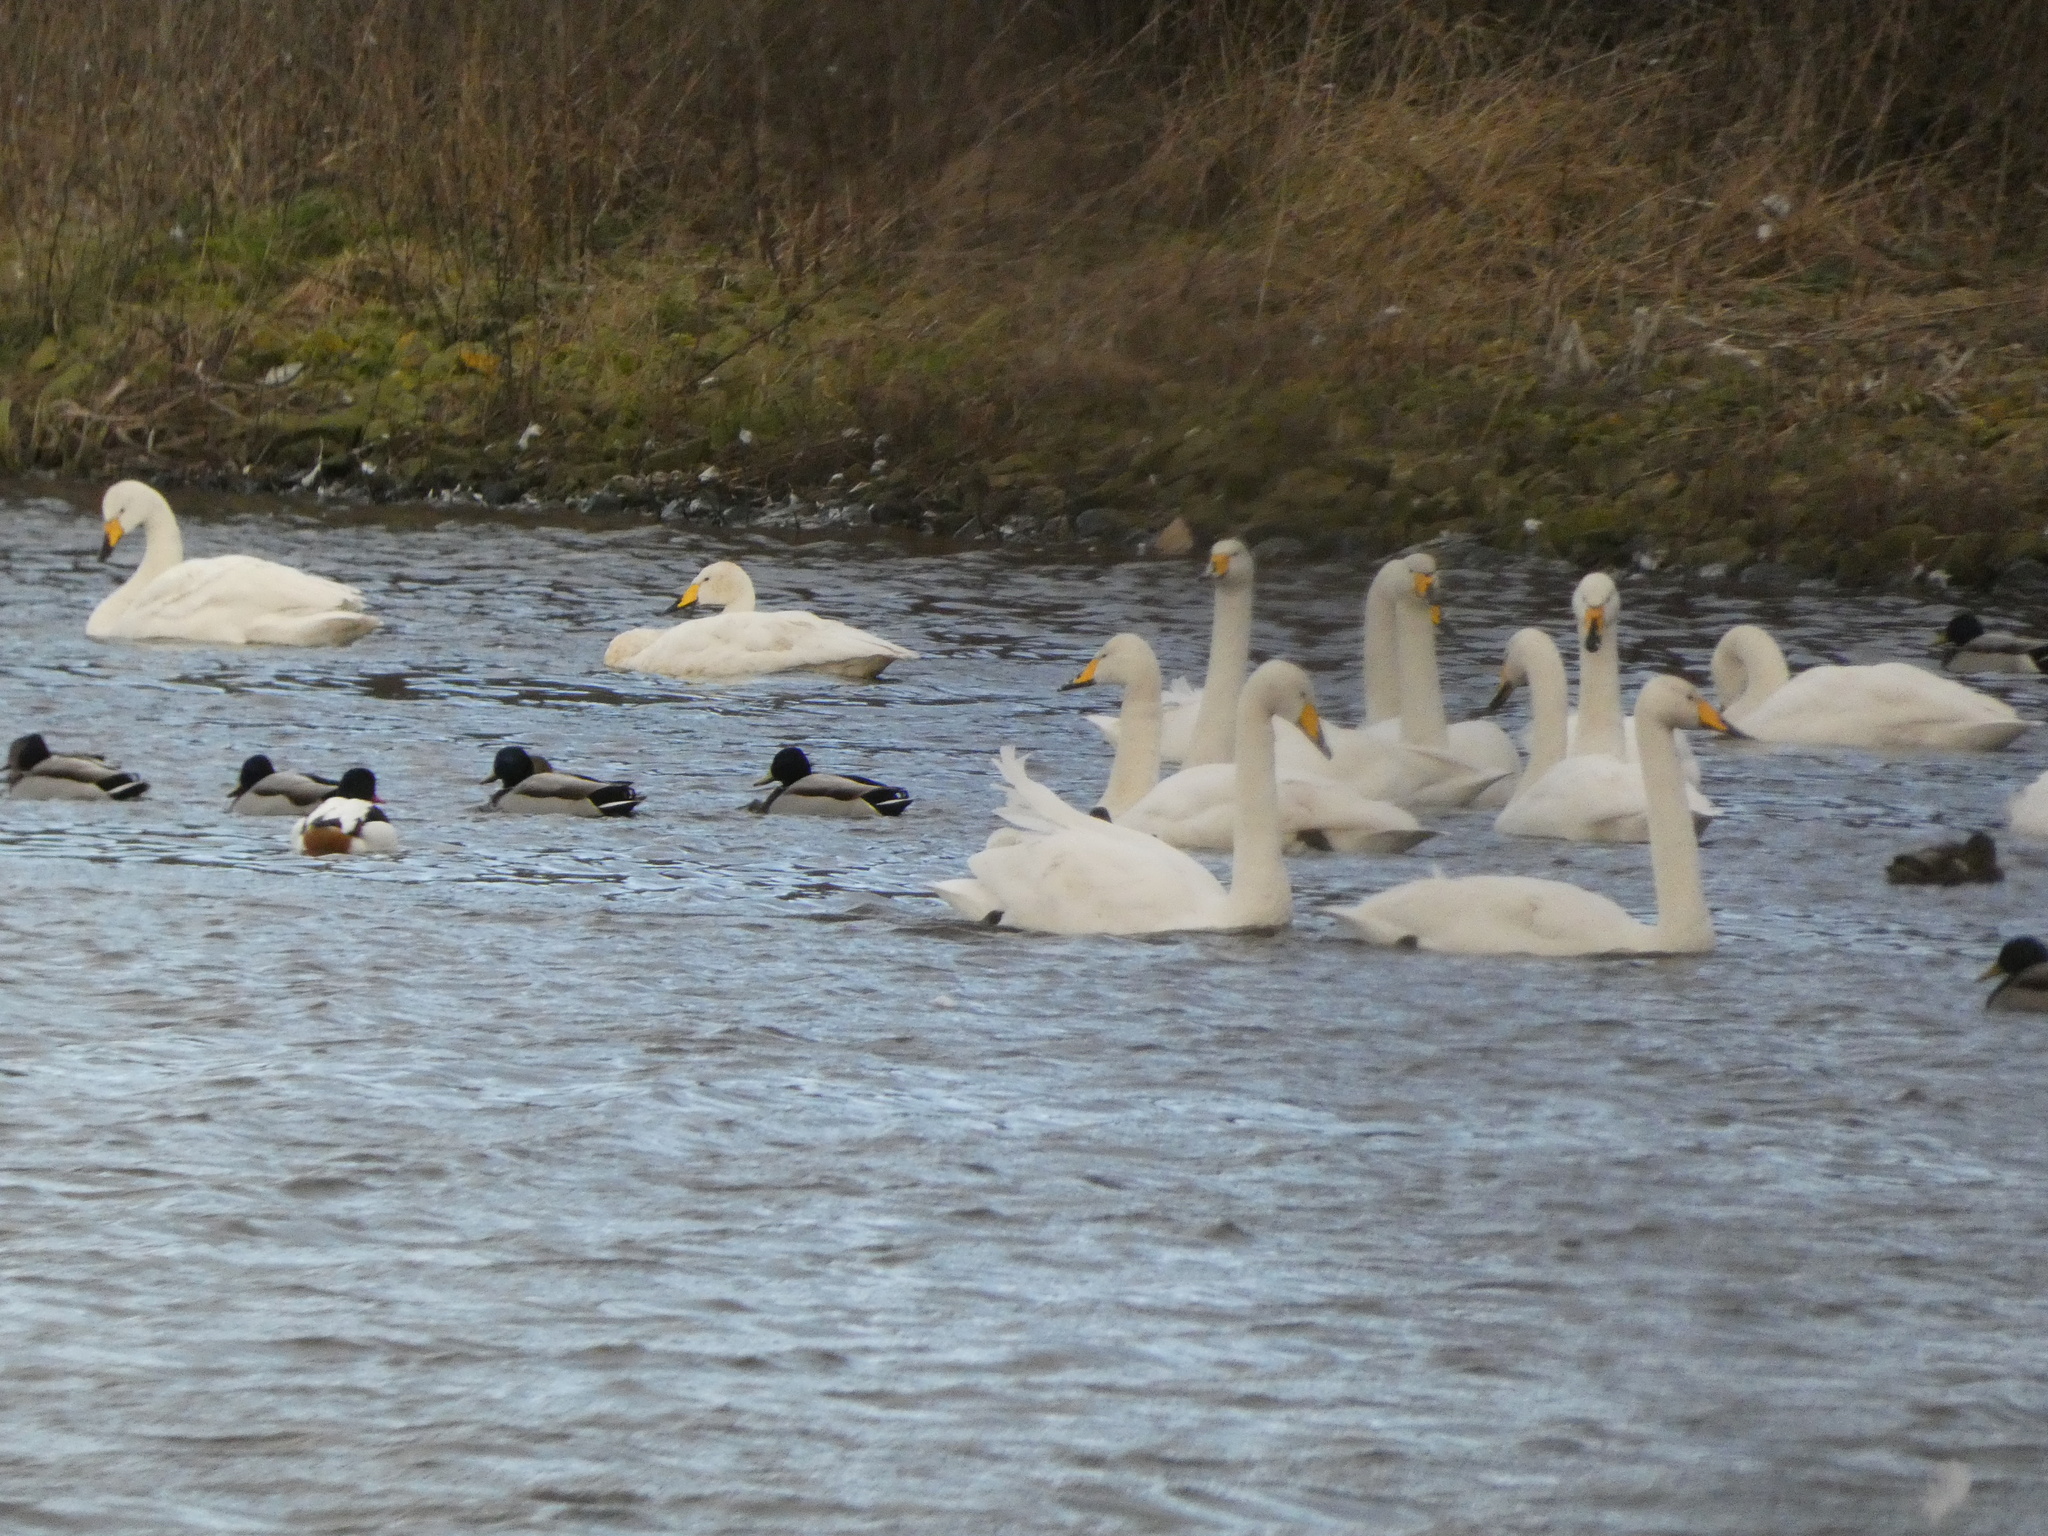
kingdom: Animalia
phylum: Chordata
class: Aves
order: Anseriformes
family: Anatidae
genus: Cygnus
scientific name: Cygnus cygnus
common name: Whooper swan
